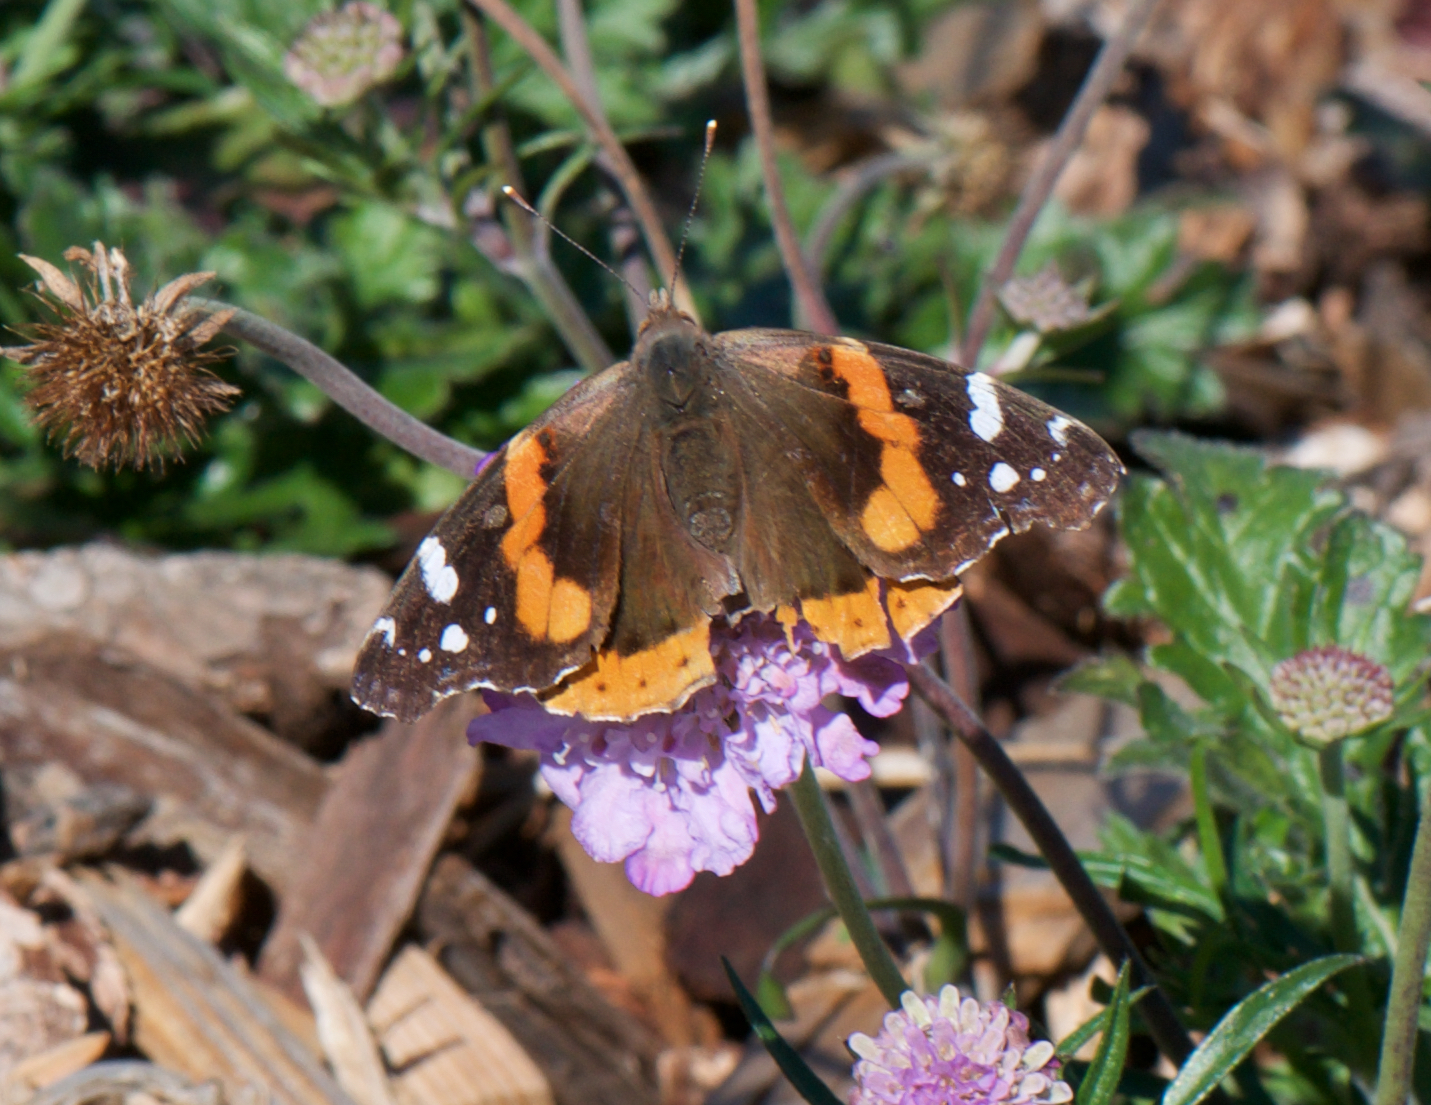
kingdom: Animalia
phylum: Arthropoda
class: Insecta
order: Lepidoptera
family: Nymphalidae
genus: Vanessa
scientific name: Vanessa atalanta
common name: Red admiral
